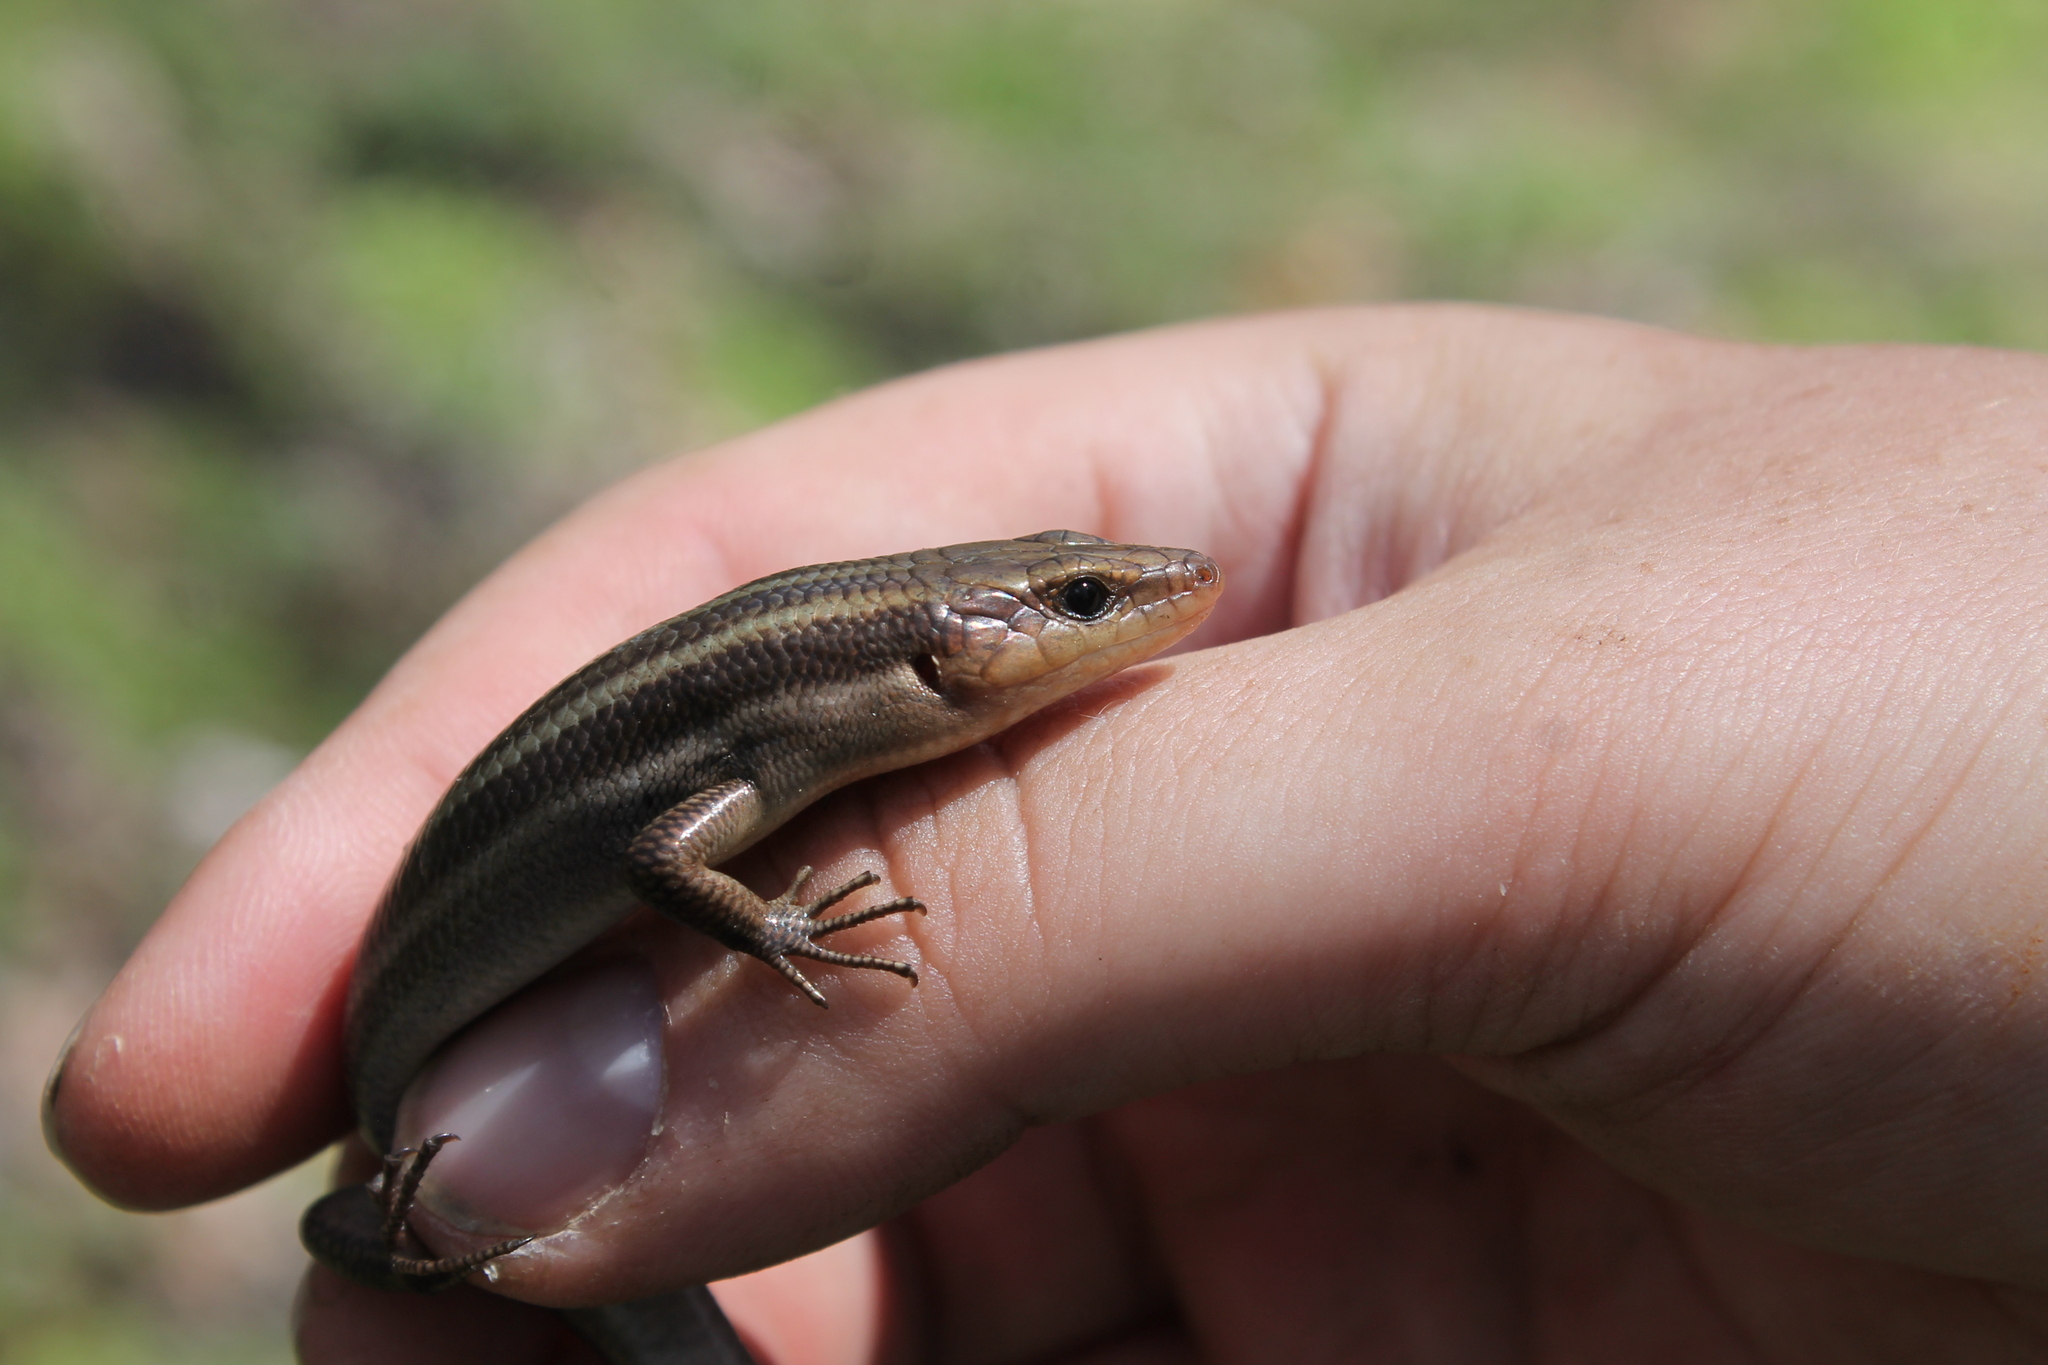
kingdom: Animalia
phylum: Chordata
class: Squamata
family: Scincidae
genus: Plestiodon
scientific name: Plestiodon fasciatus
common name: Five-lined skink
